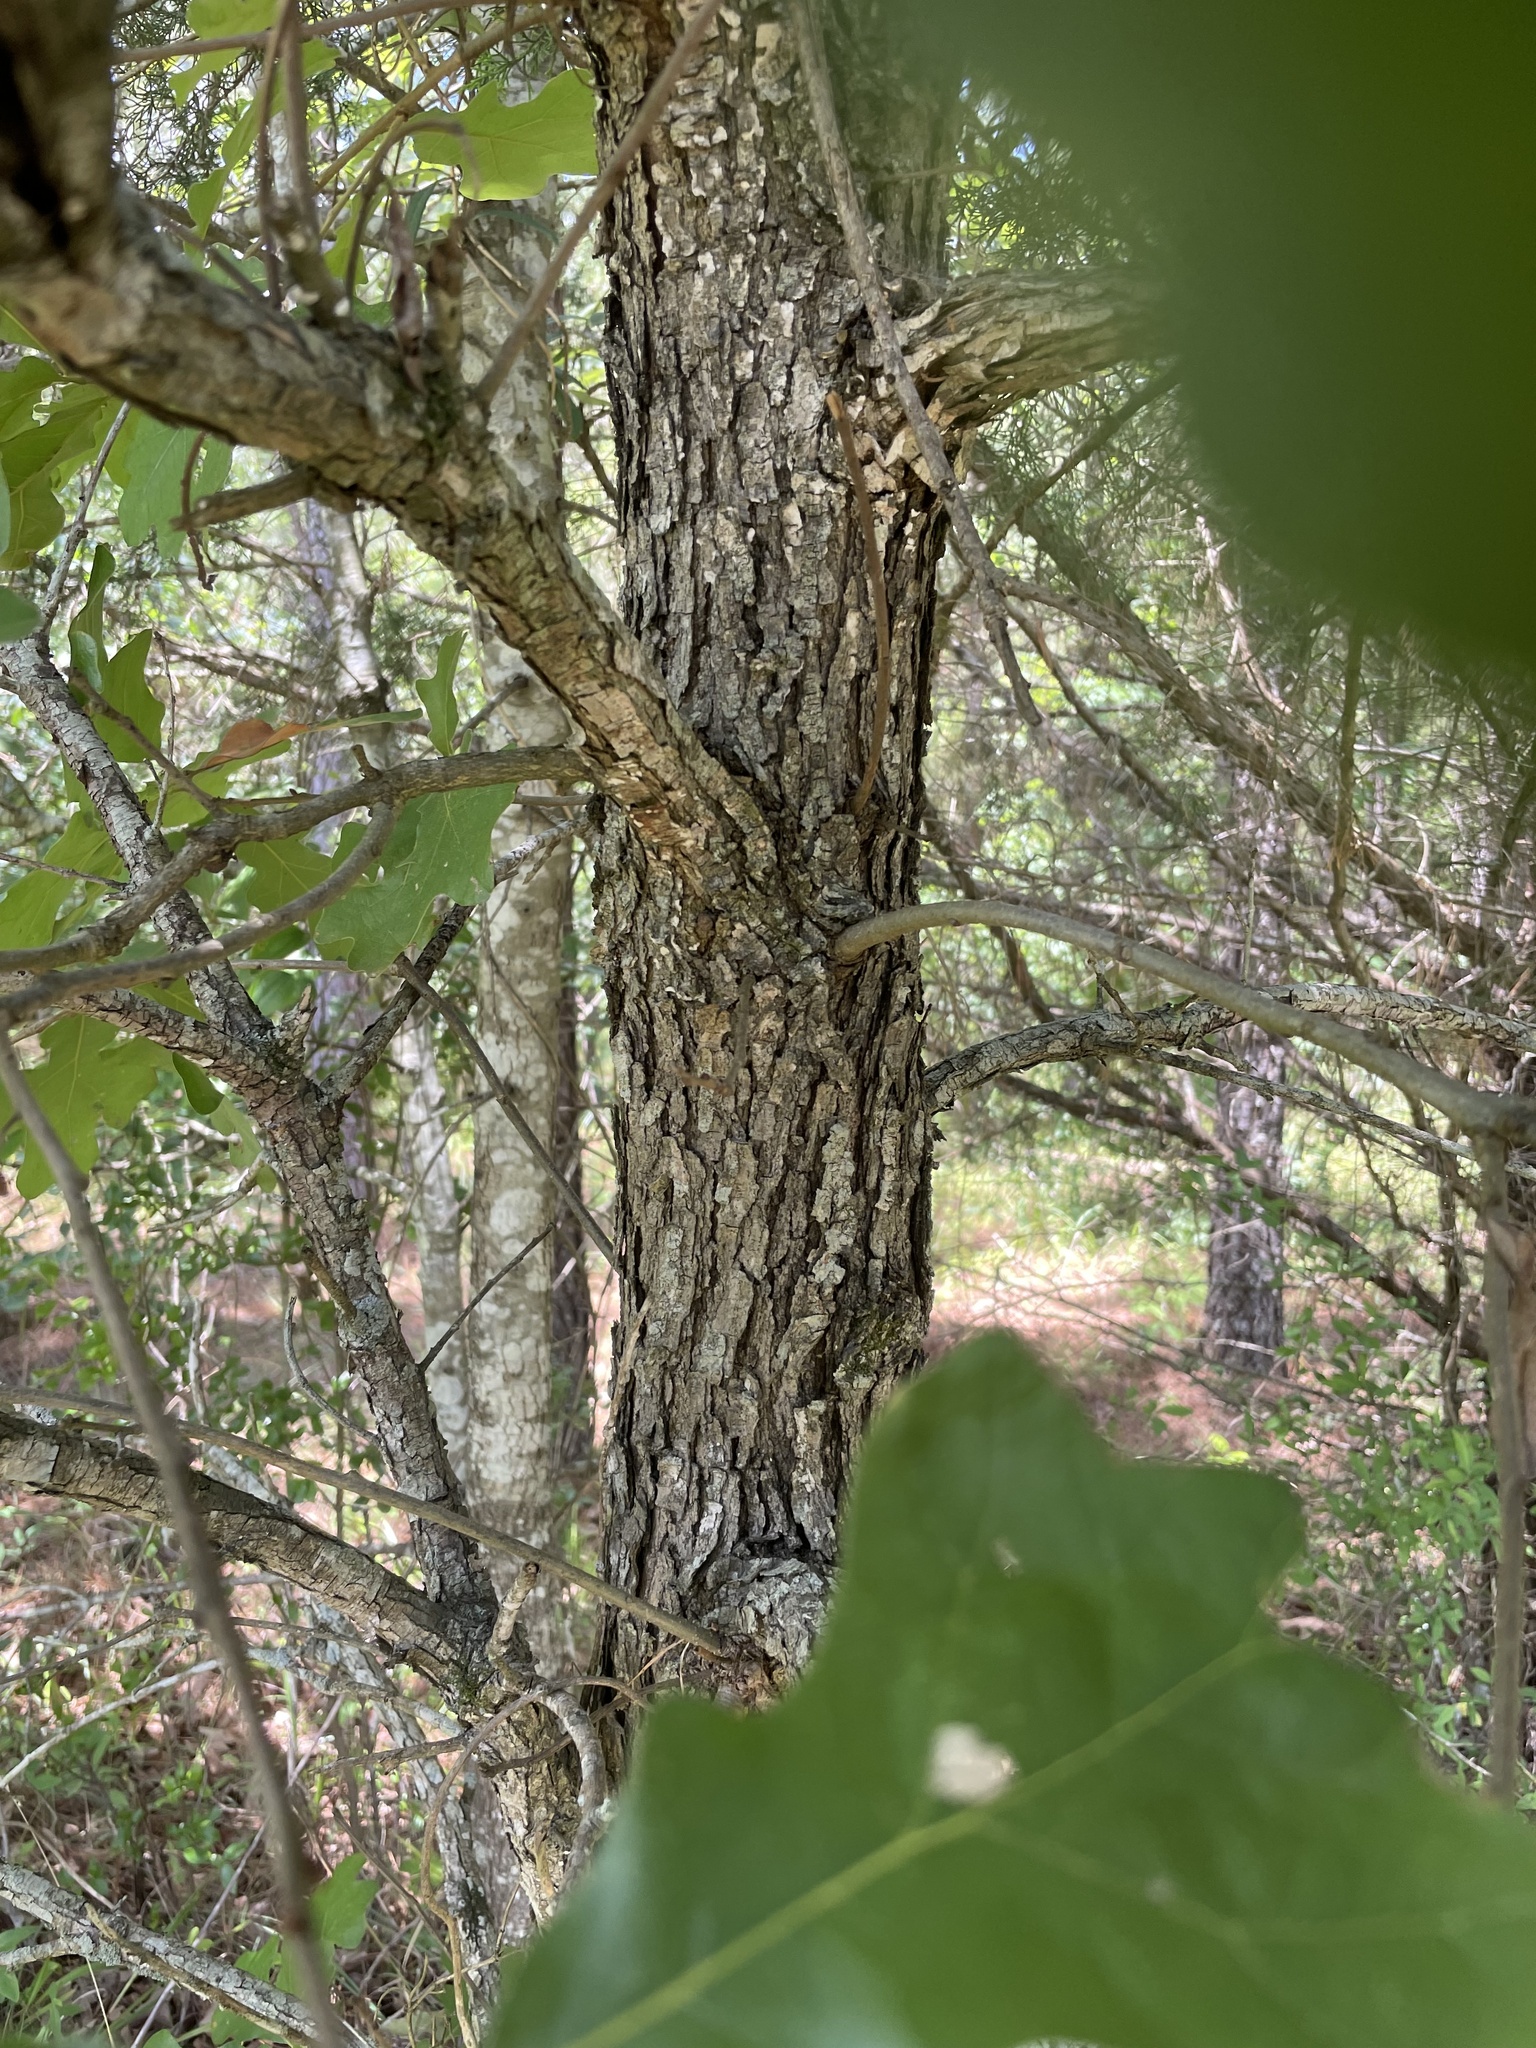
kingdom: Plantae
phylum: Tracheophyta
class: Magnoliopsida
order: Fagales
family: Fagaceae
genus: Quercus
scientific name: Quercus stellata
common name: Post oak
